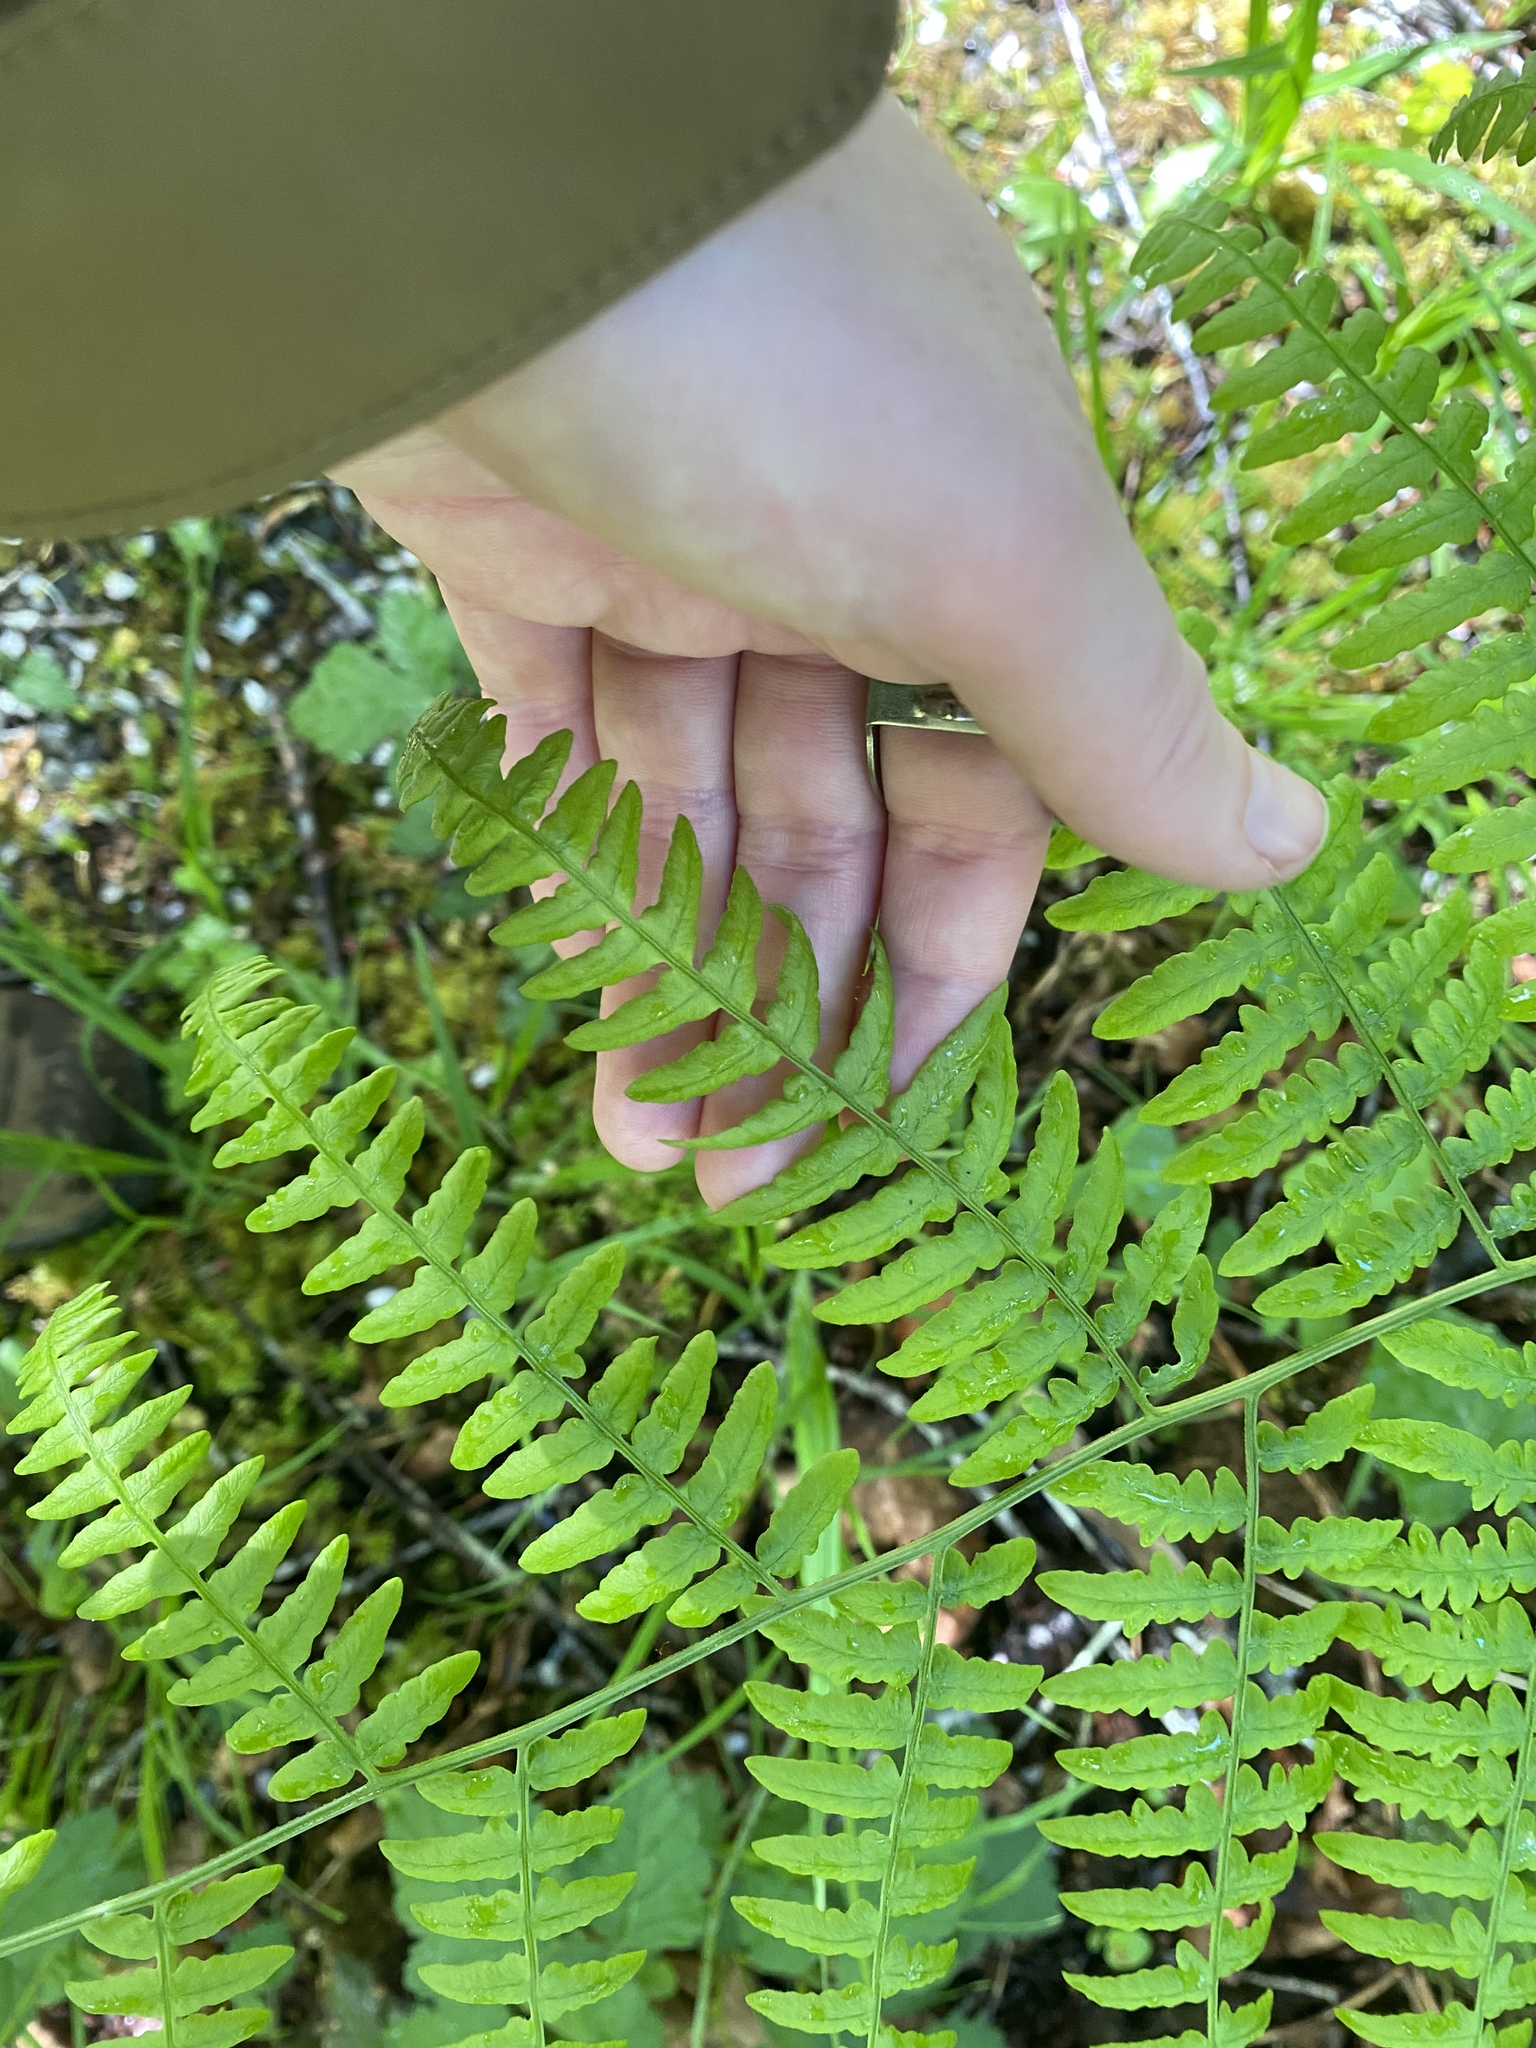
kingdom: Plantae
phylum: Tracheophyta
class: Polypodiopsida
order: Polypodiales
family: Dennstaedtiaceae
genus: Pteridium
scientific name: Pteridium aquilinum
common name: Bracken
